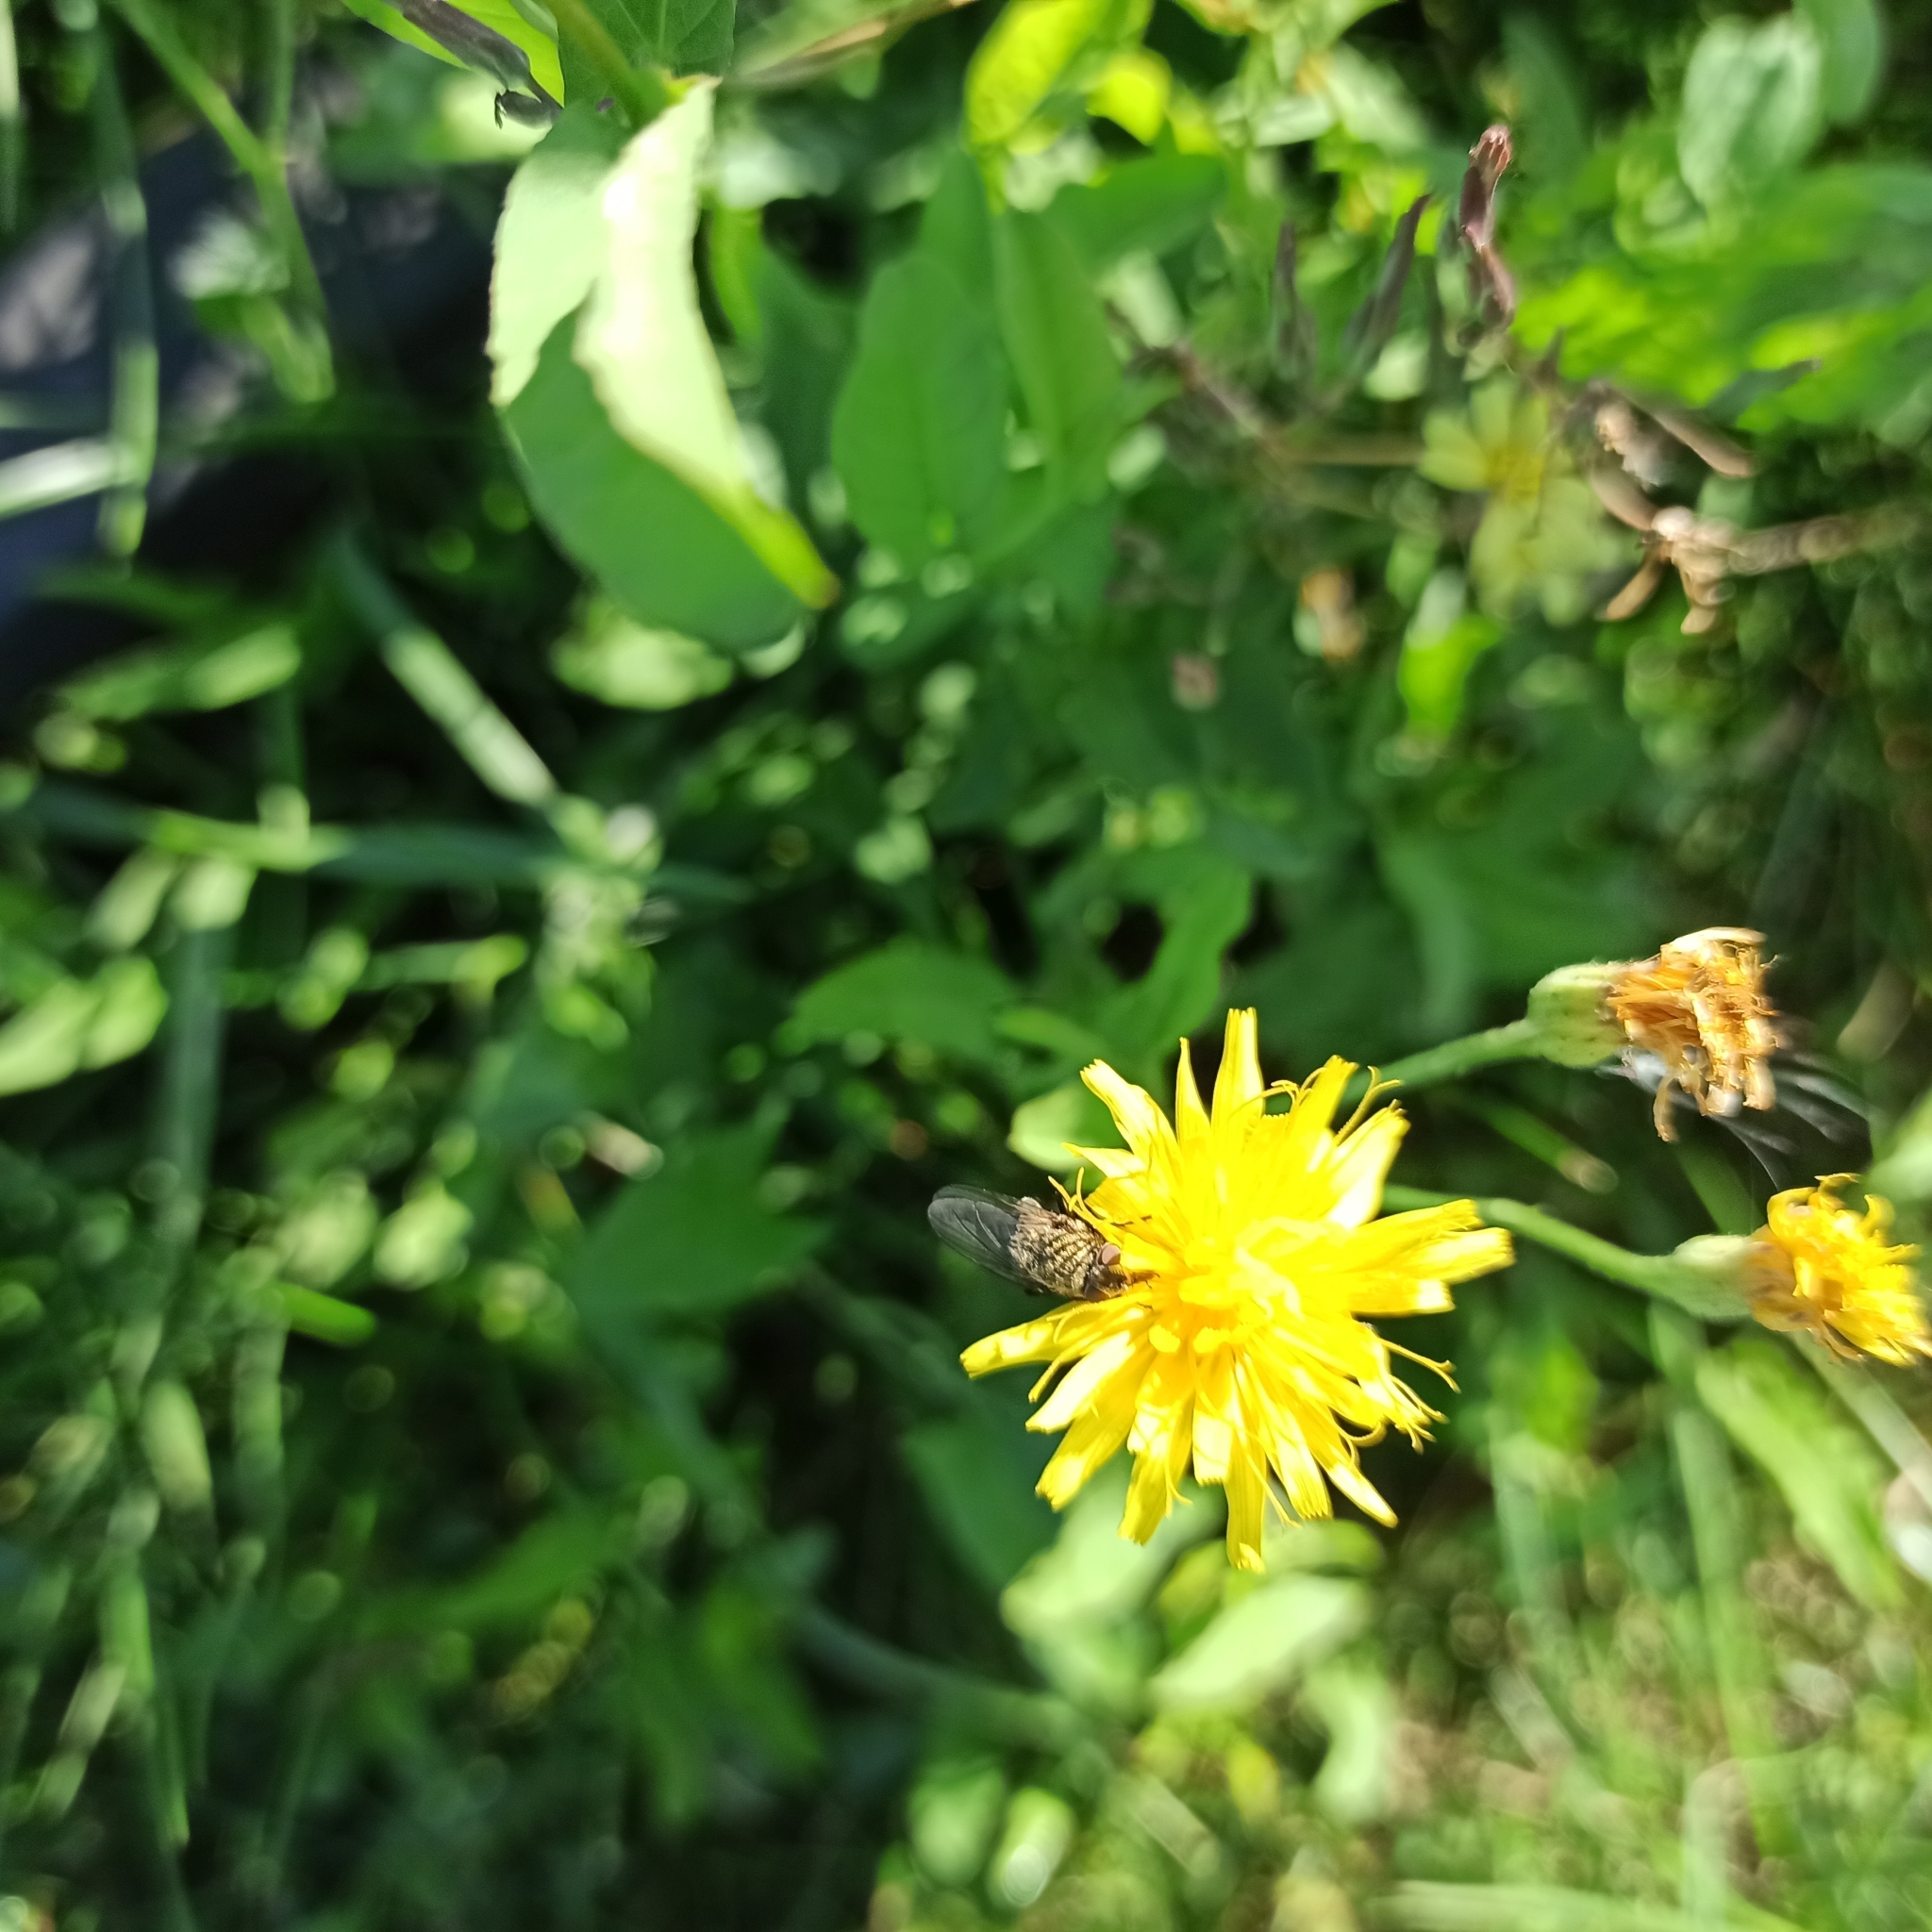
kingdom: Plantae
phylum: Tracheophyta
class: Magnoliopsida
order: Asterales
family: Asteraceae
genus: Scorzoneroides
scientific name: Scorzoneroides autumnalis
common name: Autumn hawkbit
